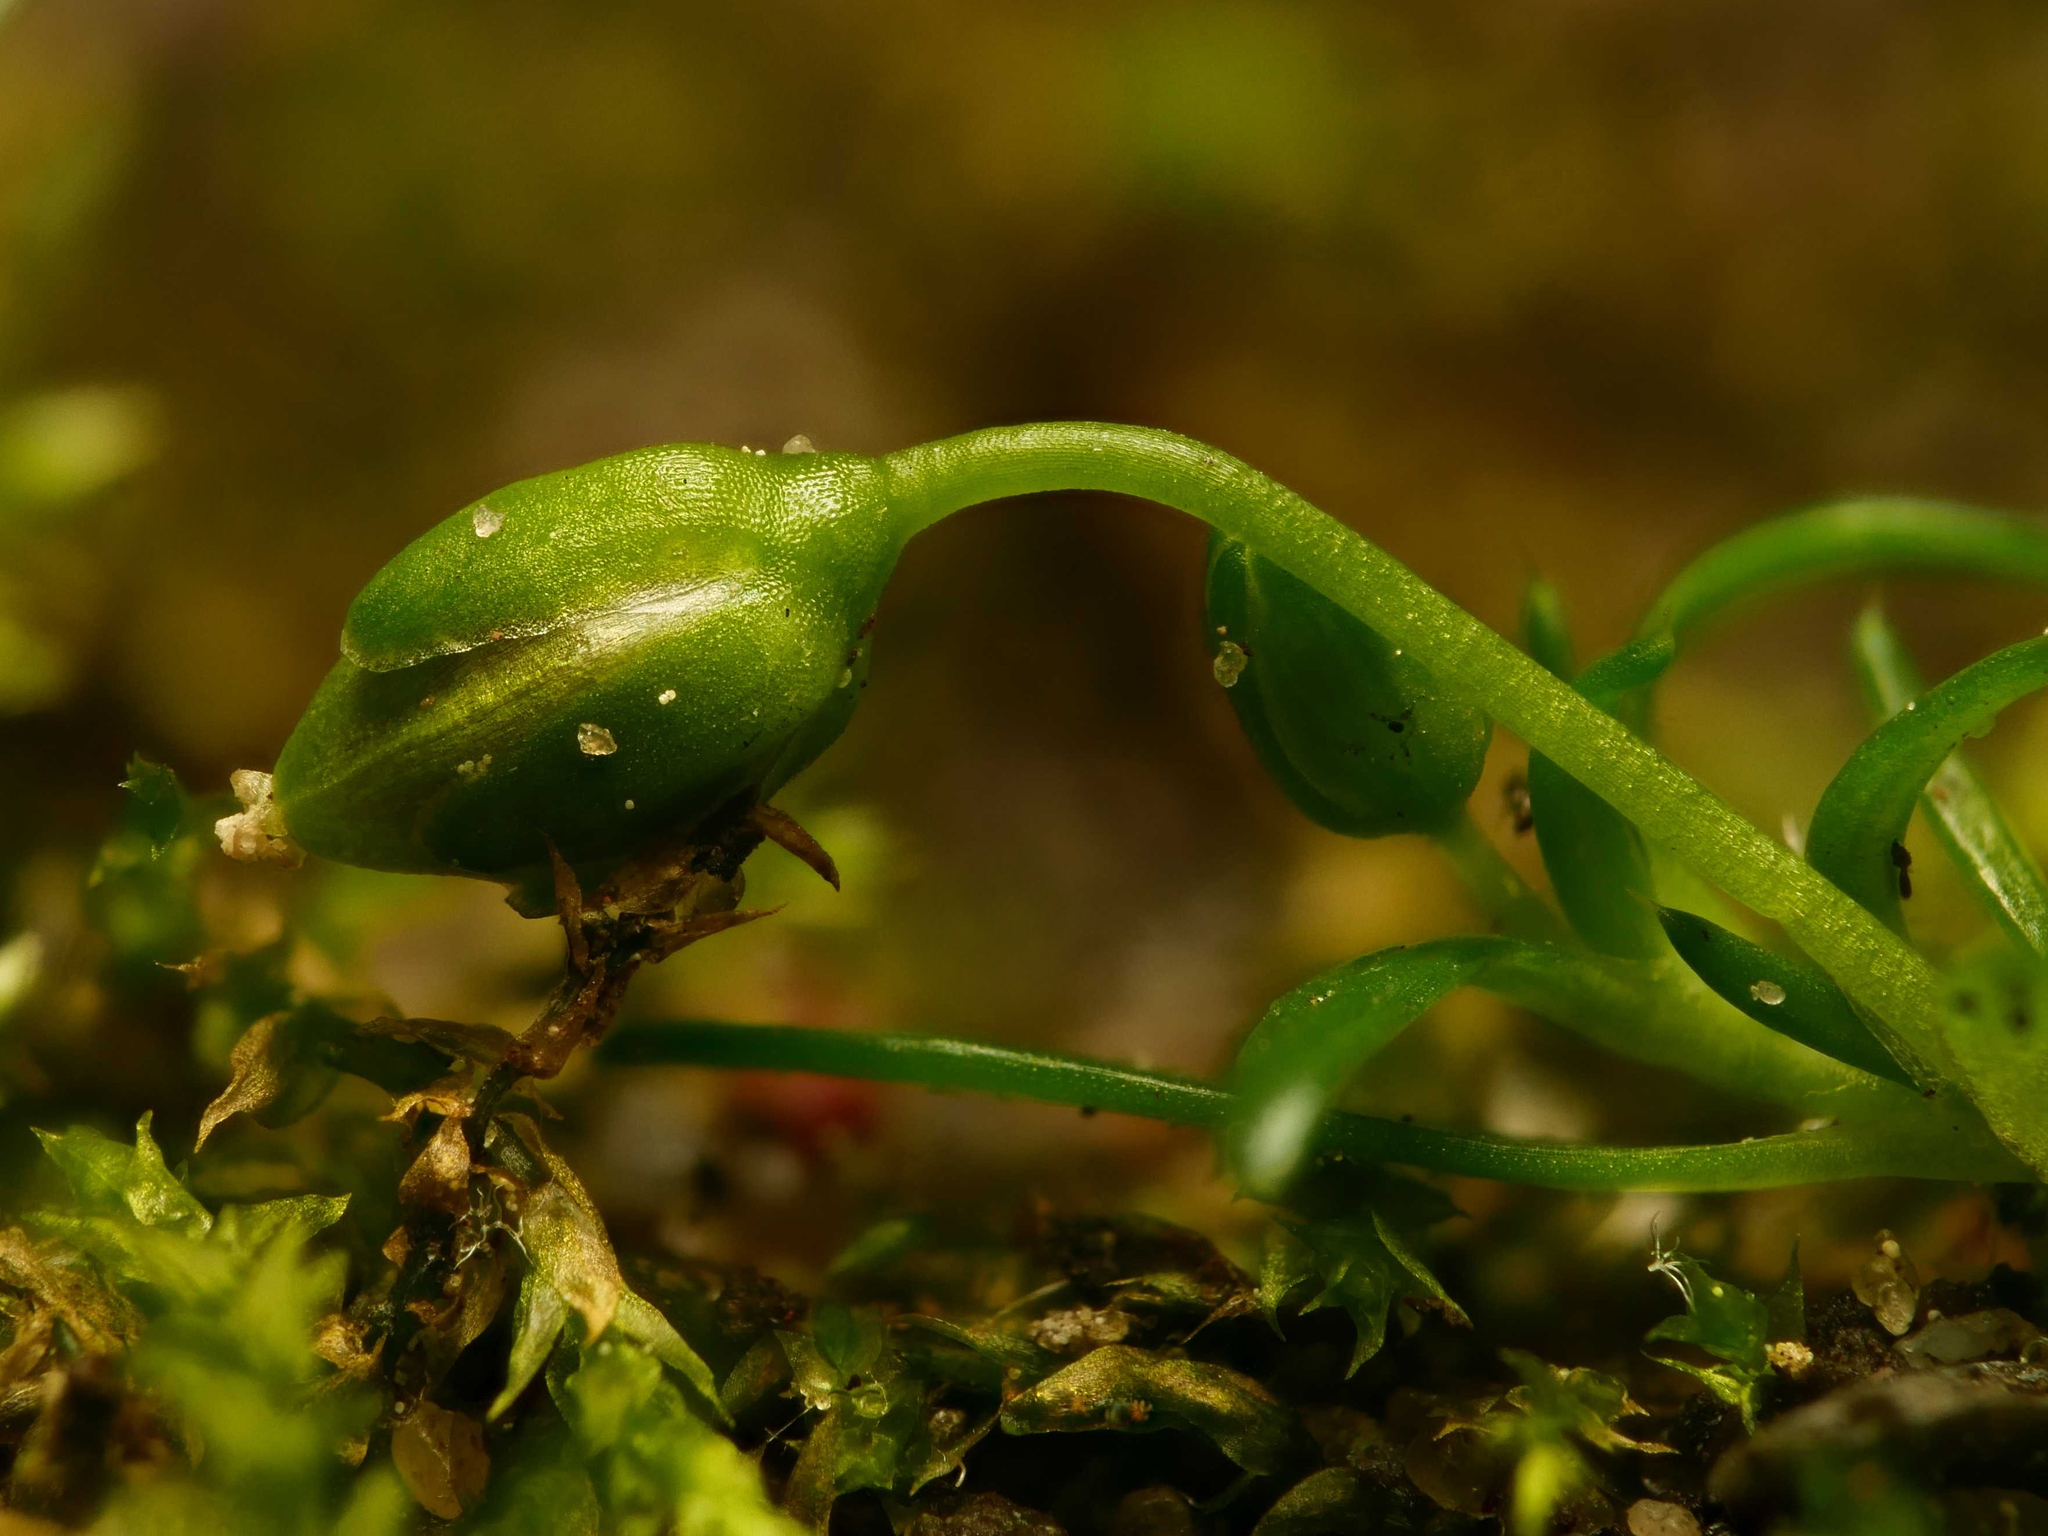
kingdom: Plantae
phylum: Tracheophyta
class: Magnoliopsida
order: Caryophyllales
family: Caryophyllaceae
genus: Sagina
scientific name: Sagina procumbens
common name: Procumbent pearlwort
